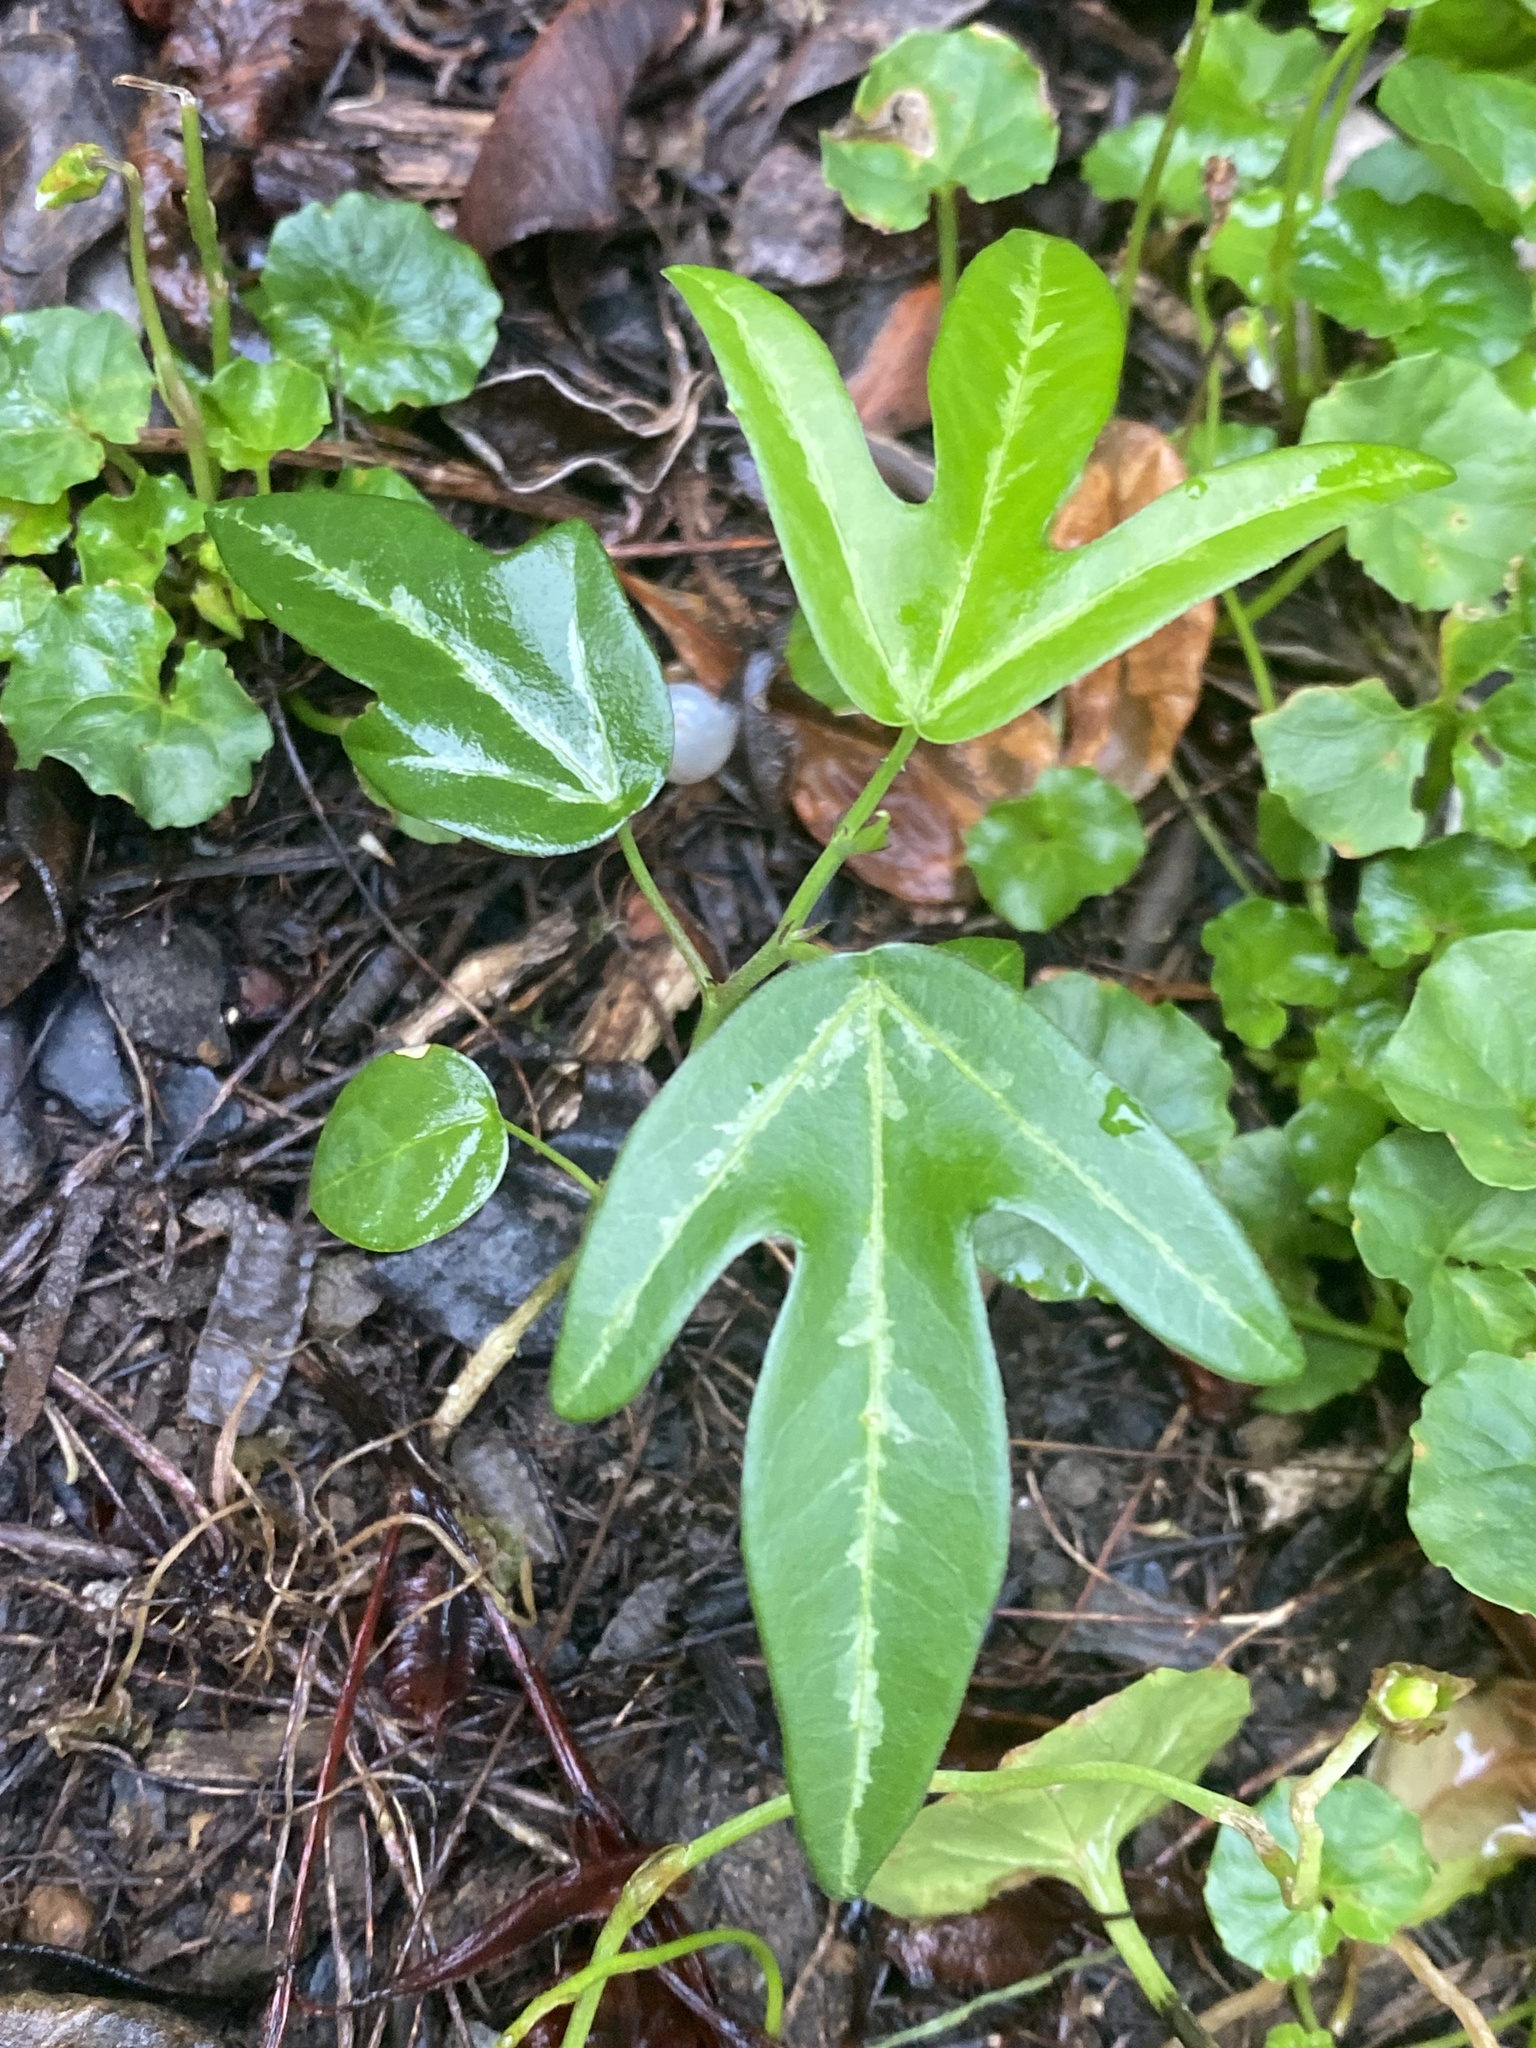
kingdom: Plantae
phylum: Tracheophyta
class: Magnoliopsida
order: Malpighiales
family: Passifloraceae
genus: Passiflora
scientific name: Passiflora pallida
